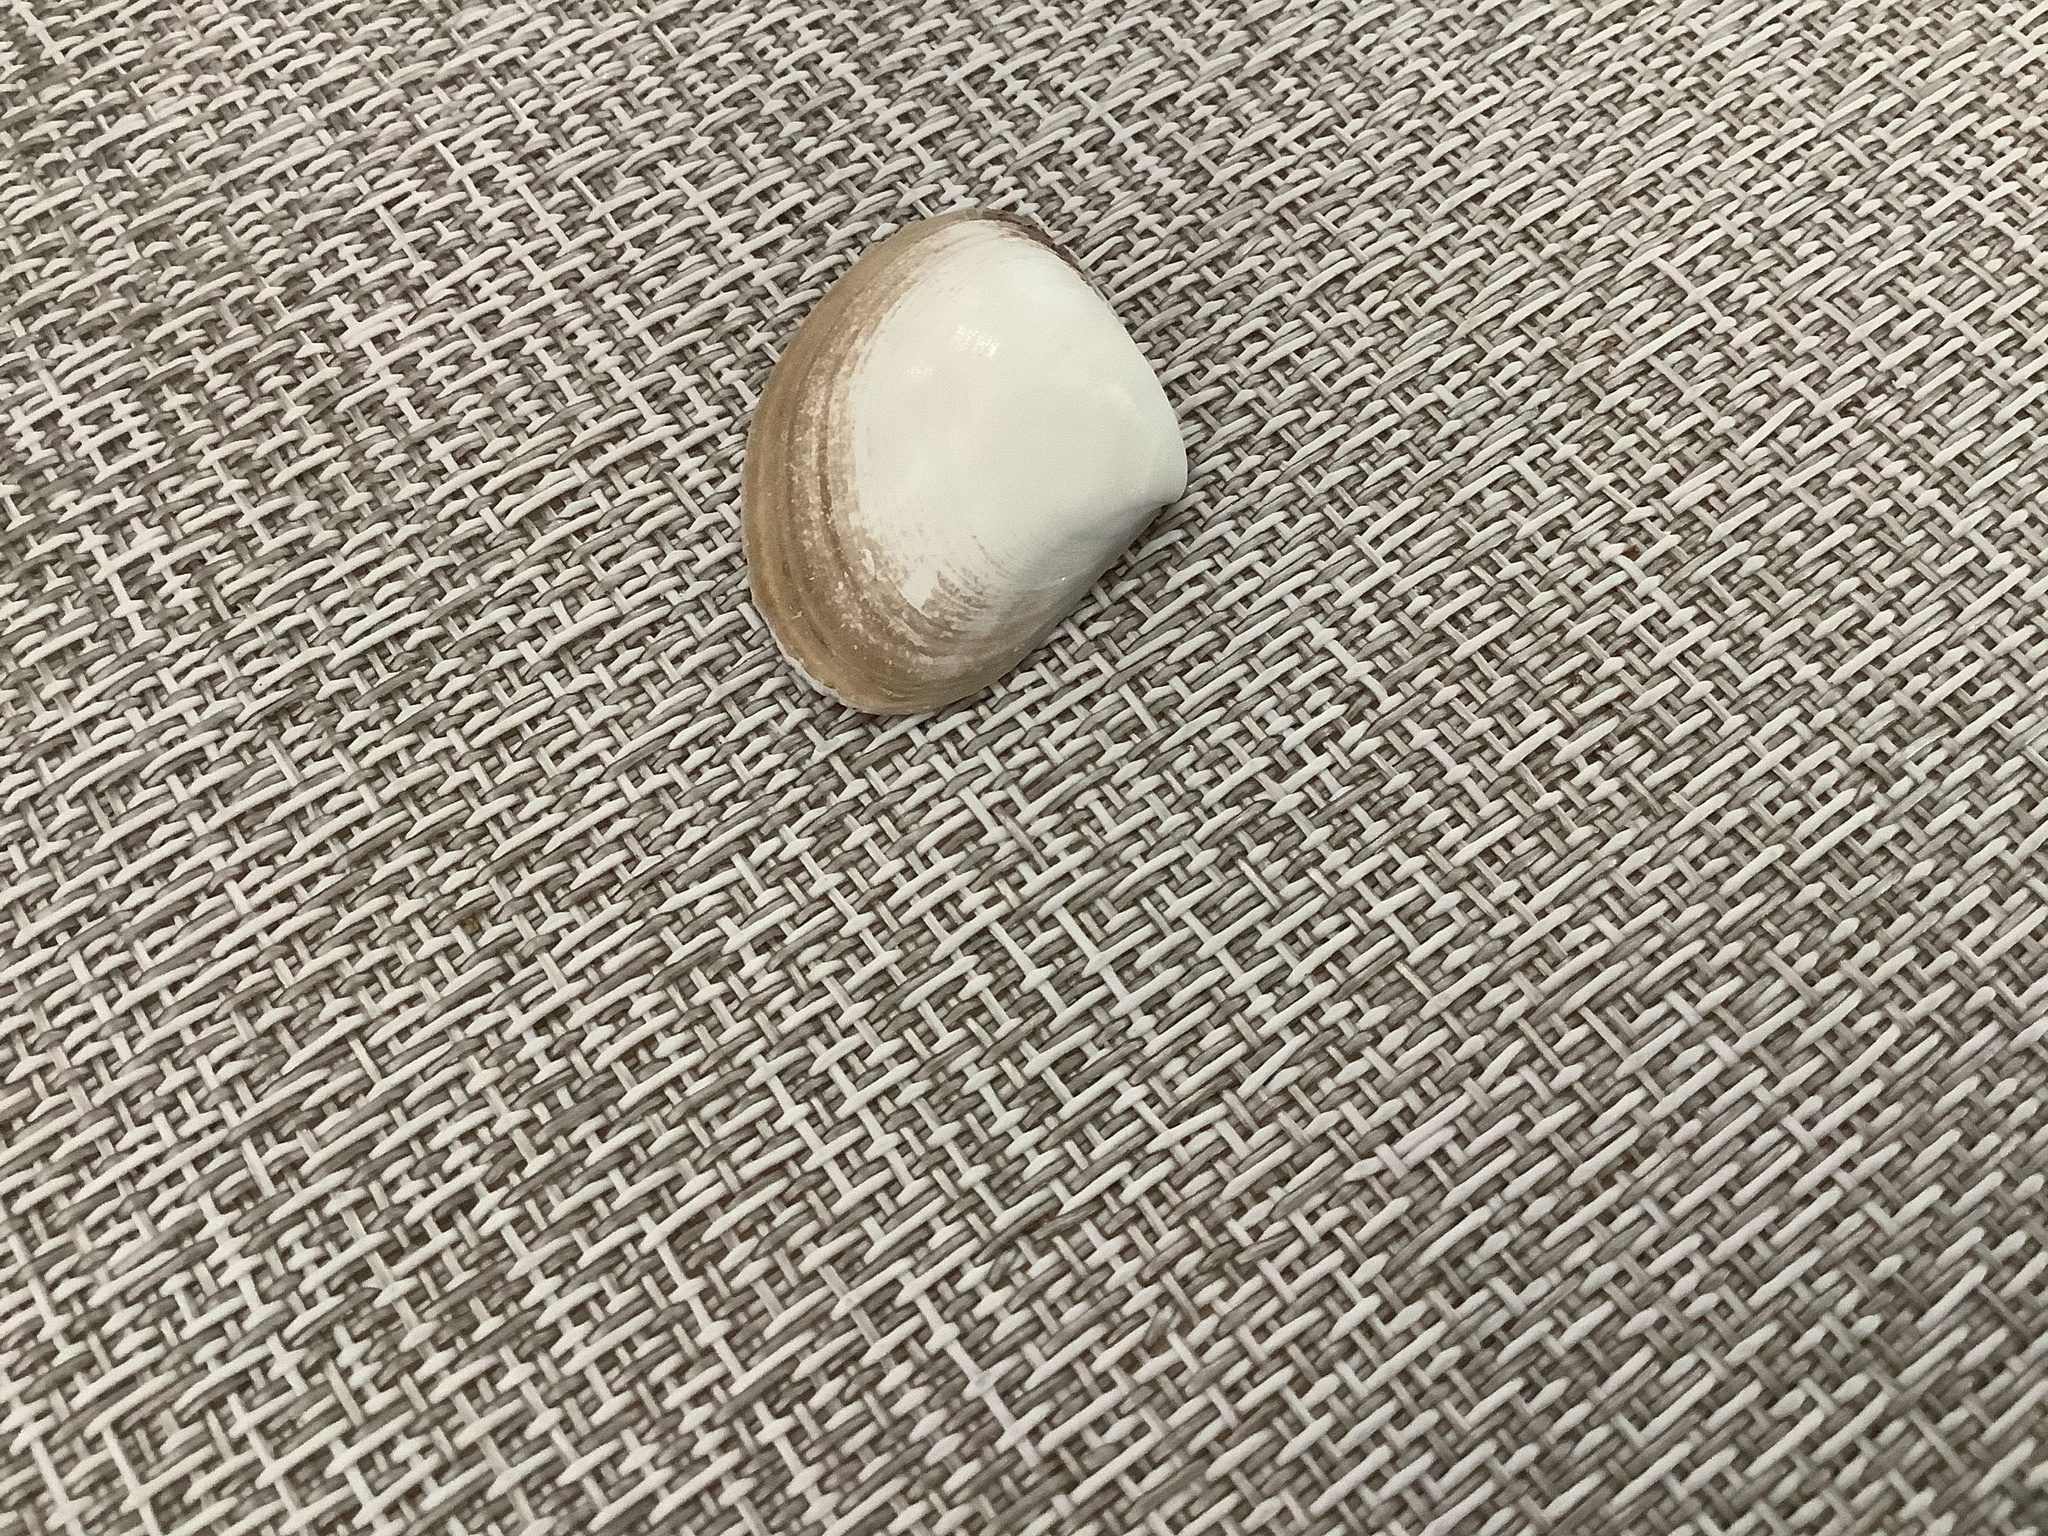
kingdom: Animalia
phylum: Mollusca
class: Bivalvia
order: Venerida
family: Mactridae
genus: Spisula
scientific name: Spisula raveneli
